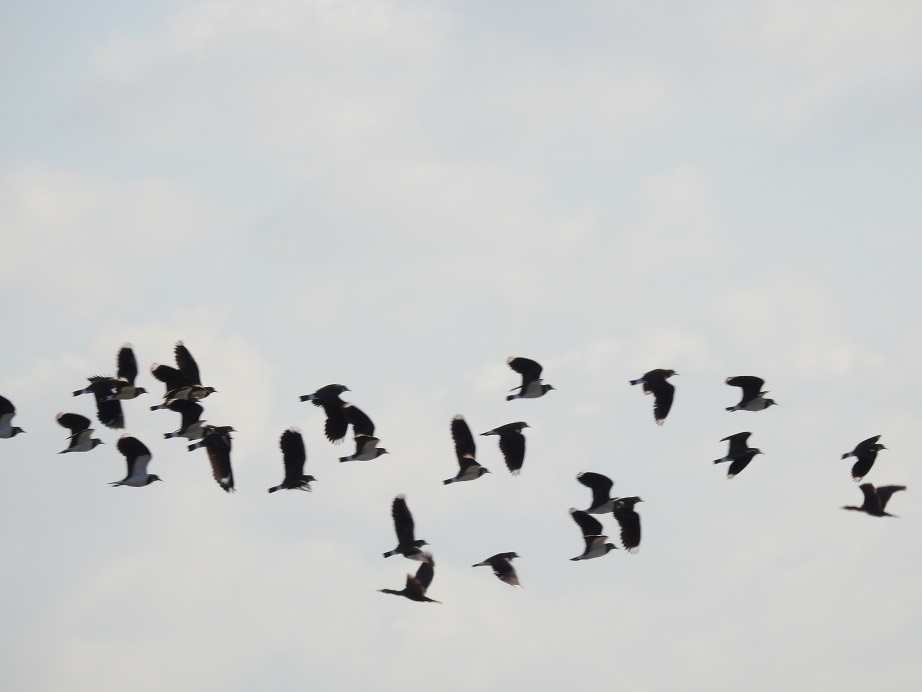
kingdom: Animalia
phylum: Chordata
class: Aves
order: Charadriiformes
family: Charadriidae
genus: Vanellus
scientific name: Vanellus vanellus
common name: Northern lapwing
